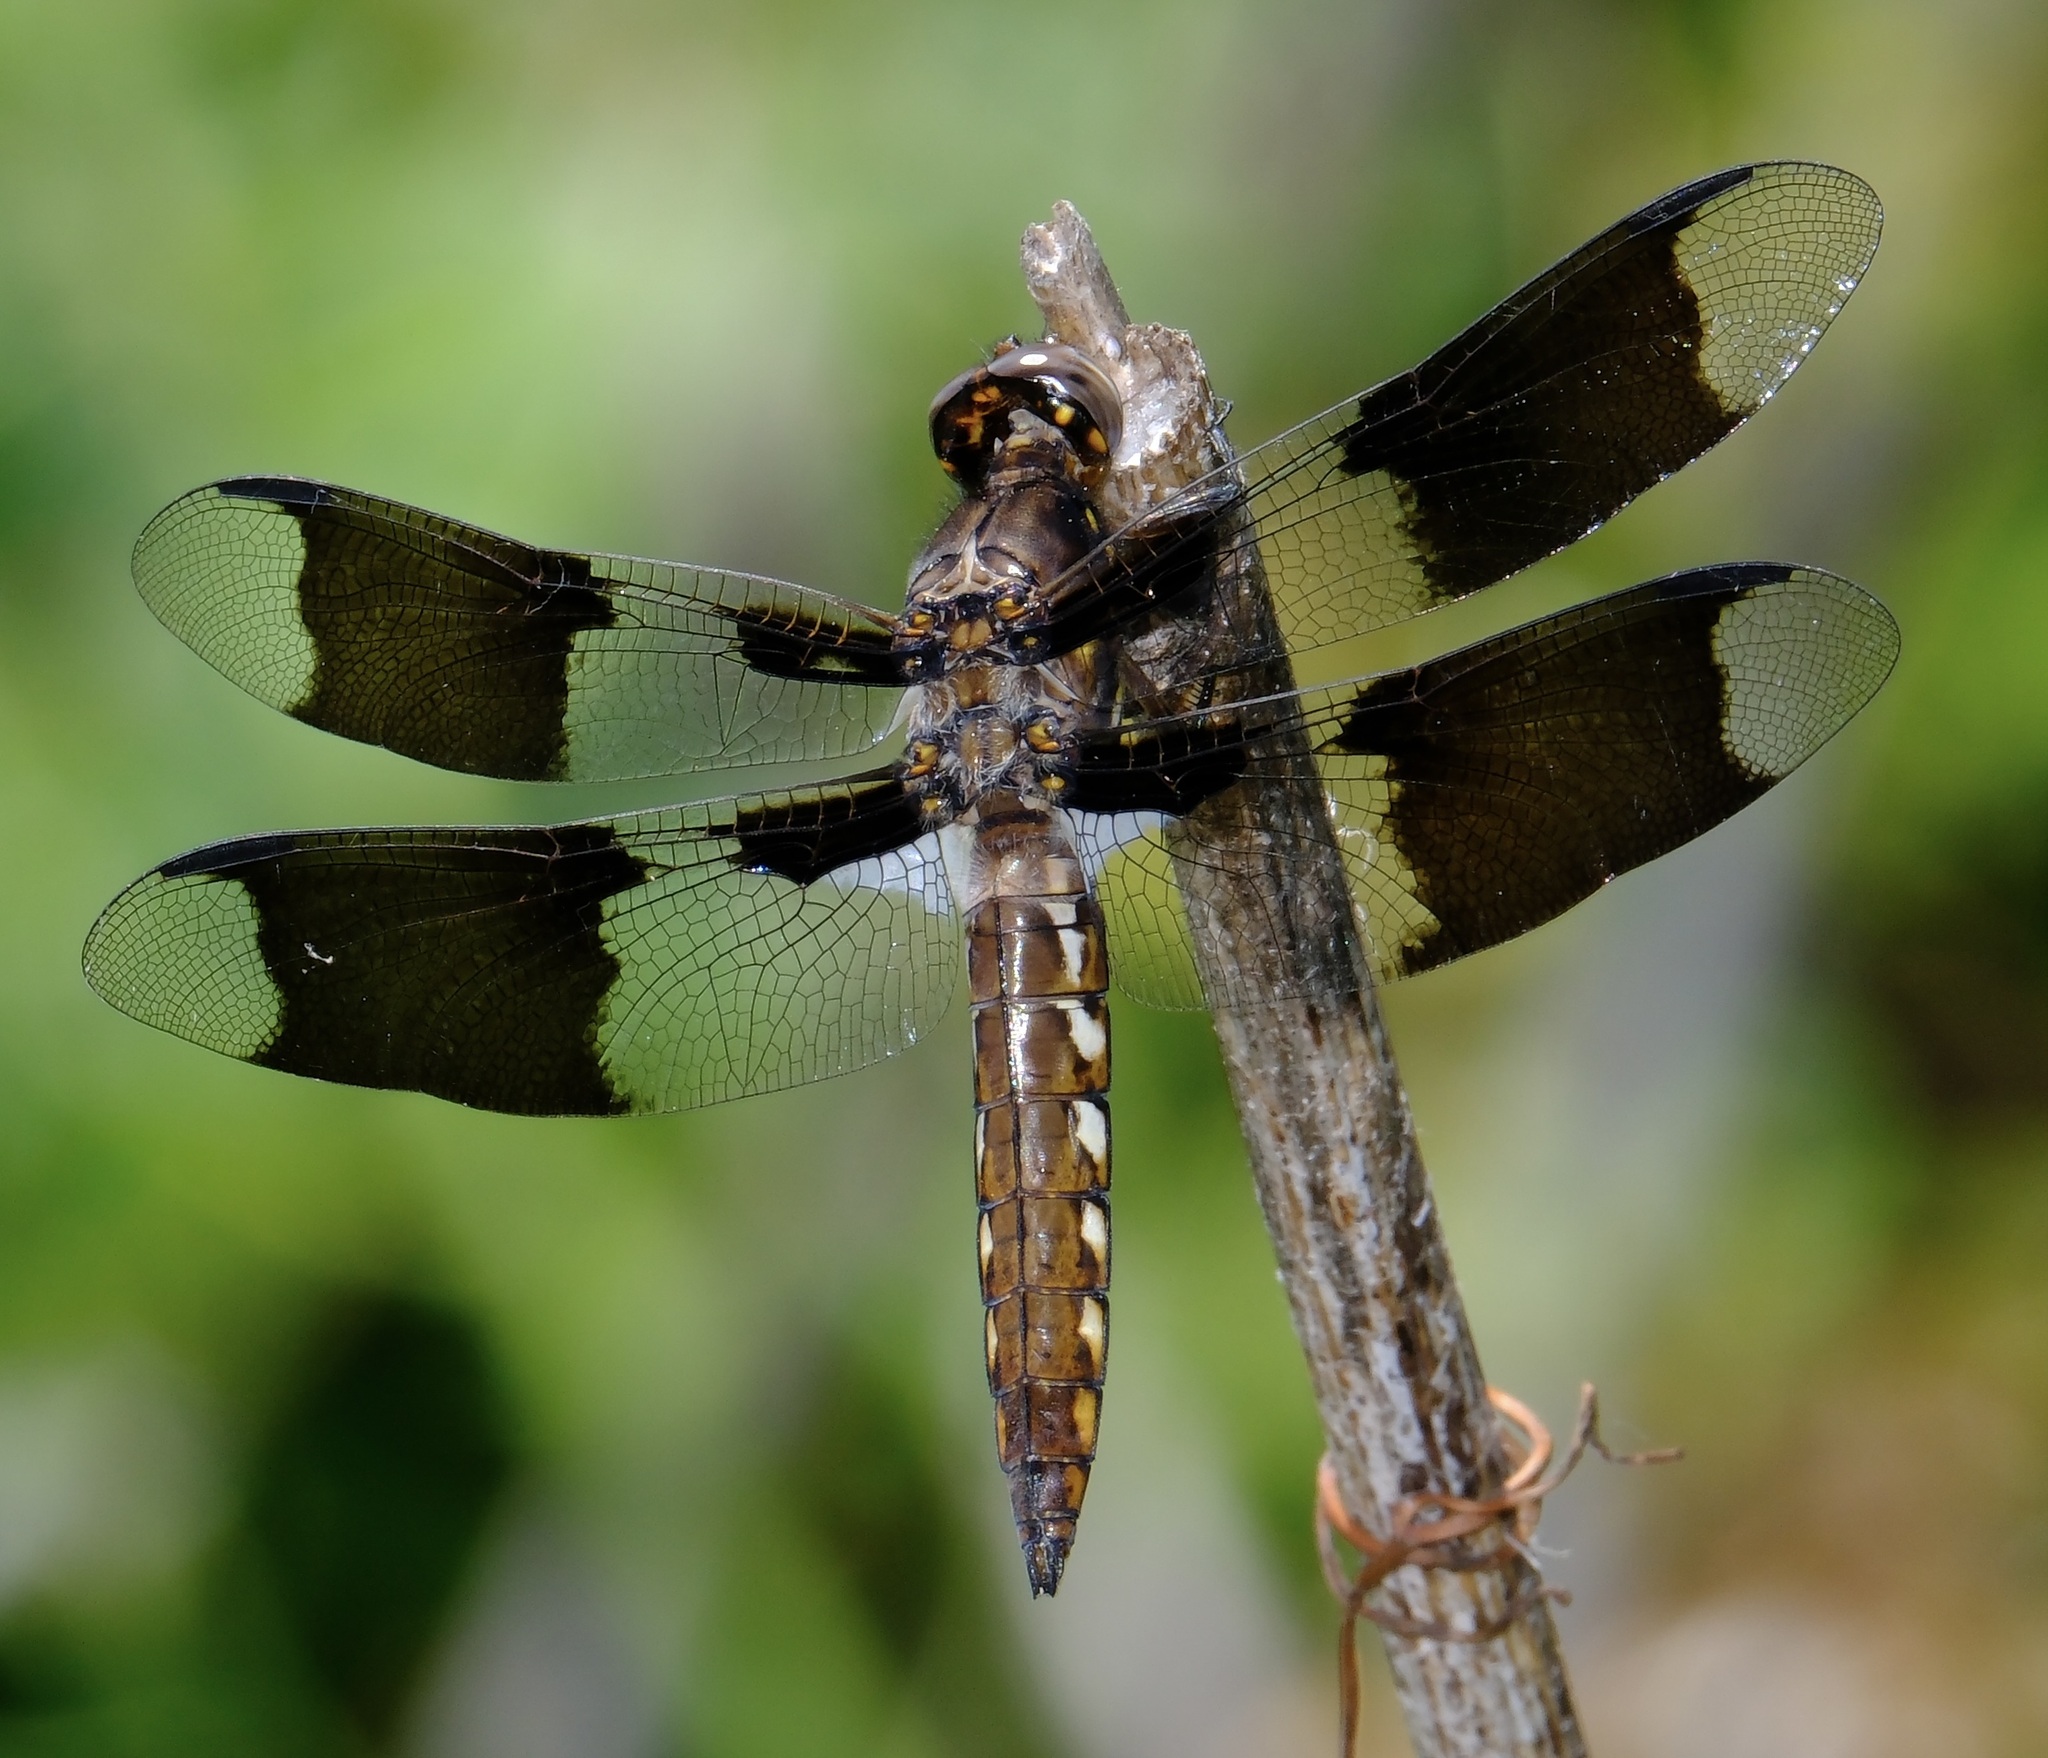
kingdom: Animalia
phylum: Arthropoda
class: Insecta
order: Odonata
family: Libellulidae
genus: Plathemis
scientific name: Plathemis lydia
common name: Common whitetail
